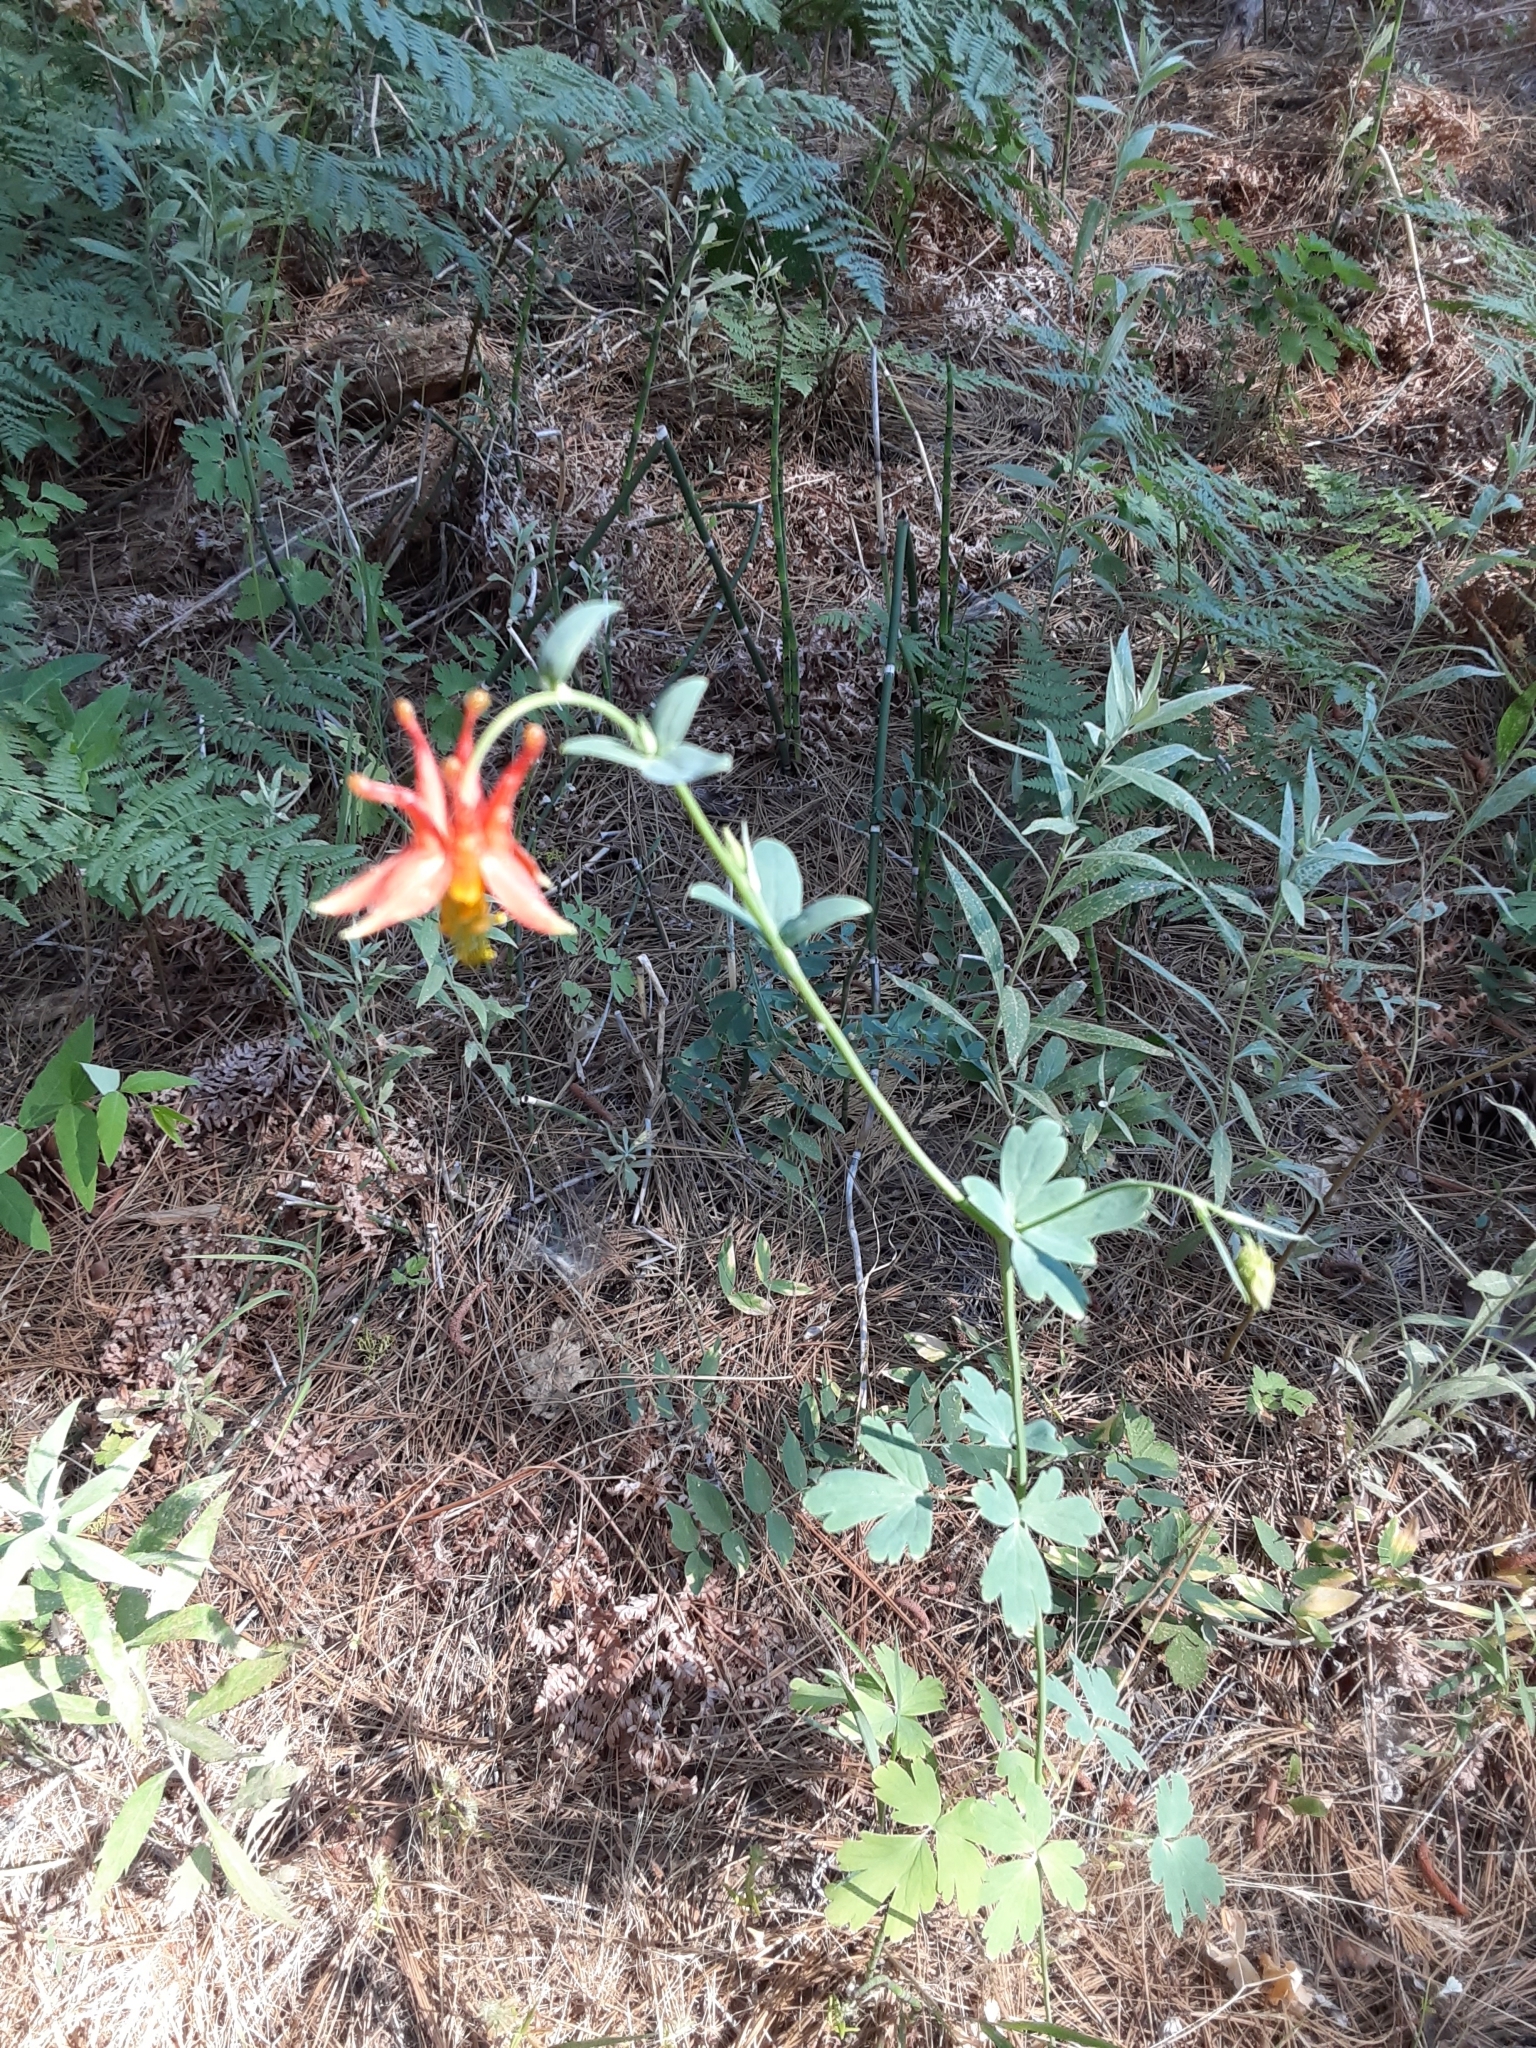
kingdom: Plantae
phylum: Tracheophyta
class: Magnoliopsida
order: Ranunculales
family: Ranunculaceae
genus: Aquilegia
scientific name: Aquilegia formosa
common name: Sitka columbine
